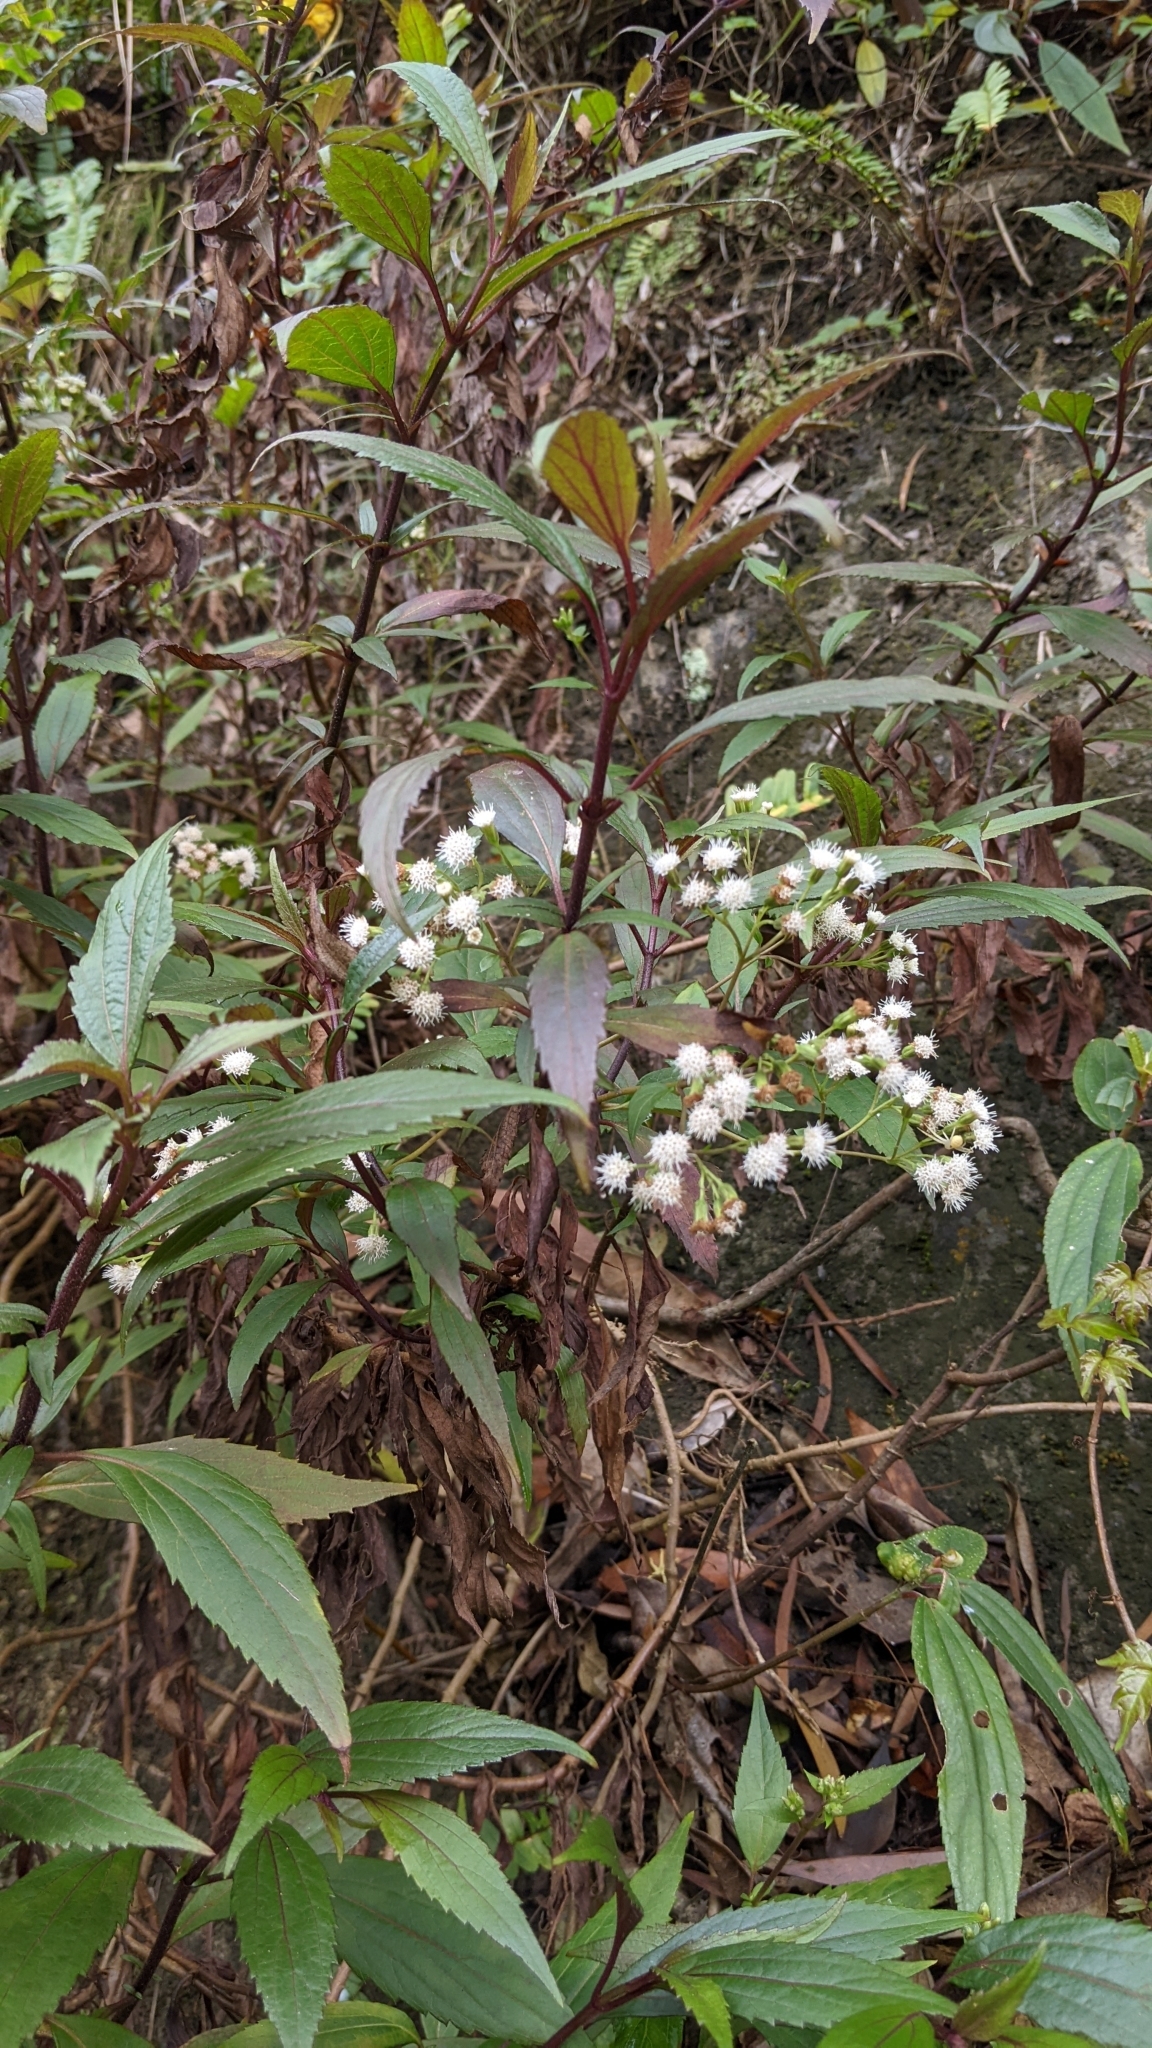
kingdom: Plantae
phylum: Tracheophyta
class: Magnoliopsida
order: Asterales
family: Asteraceae
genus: Ageratina
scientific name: Ageratina riparia
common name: Creeping croftonweed
